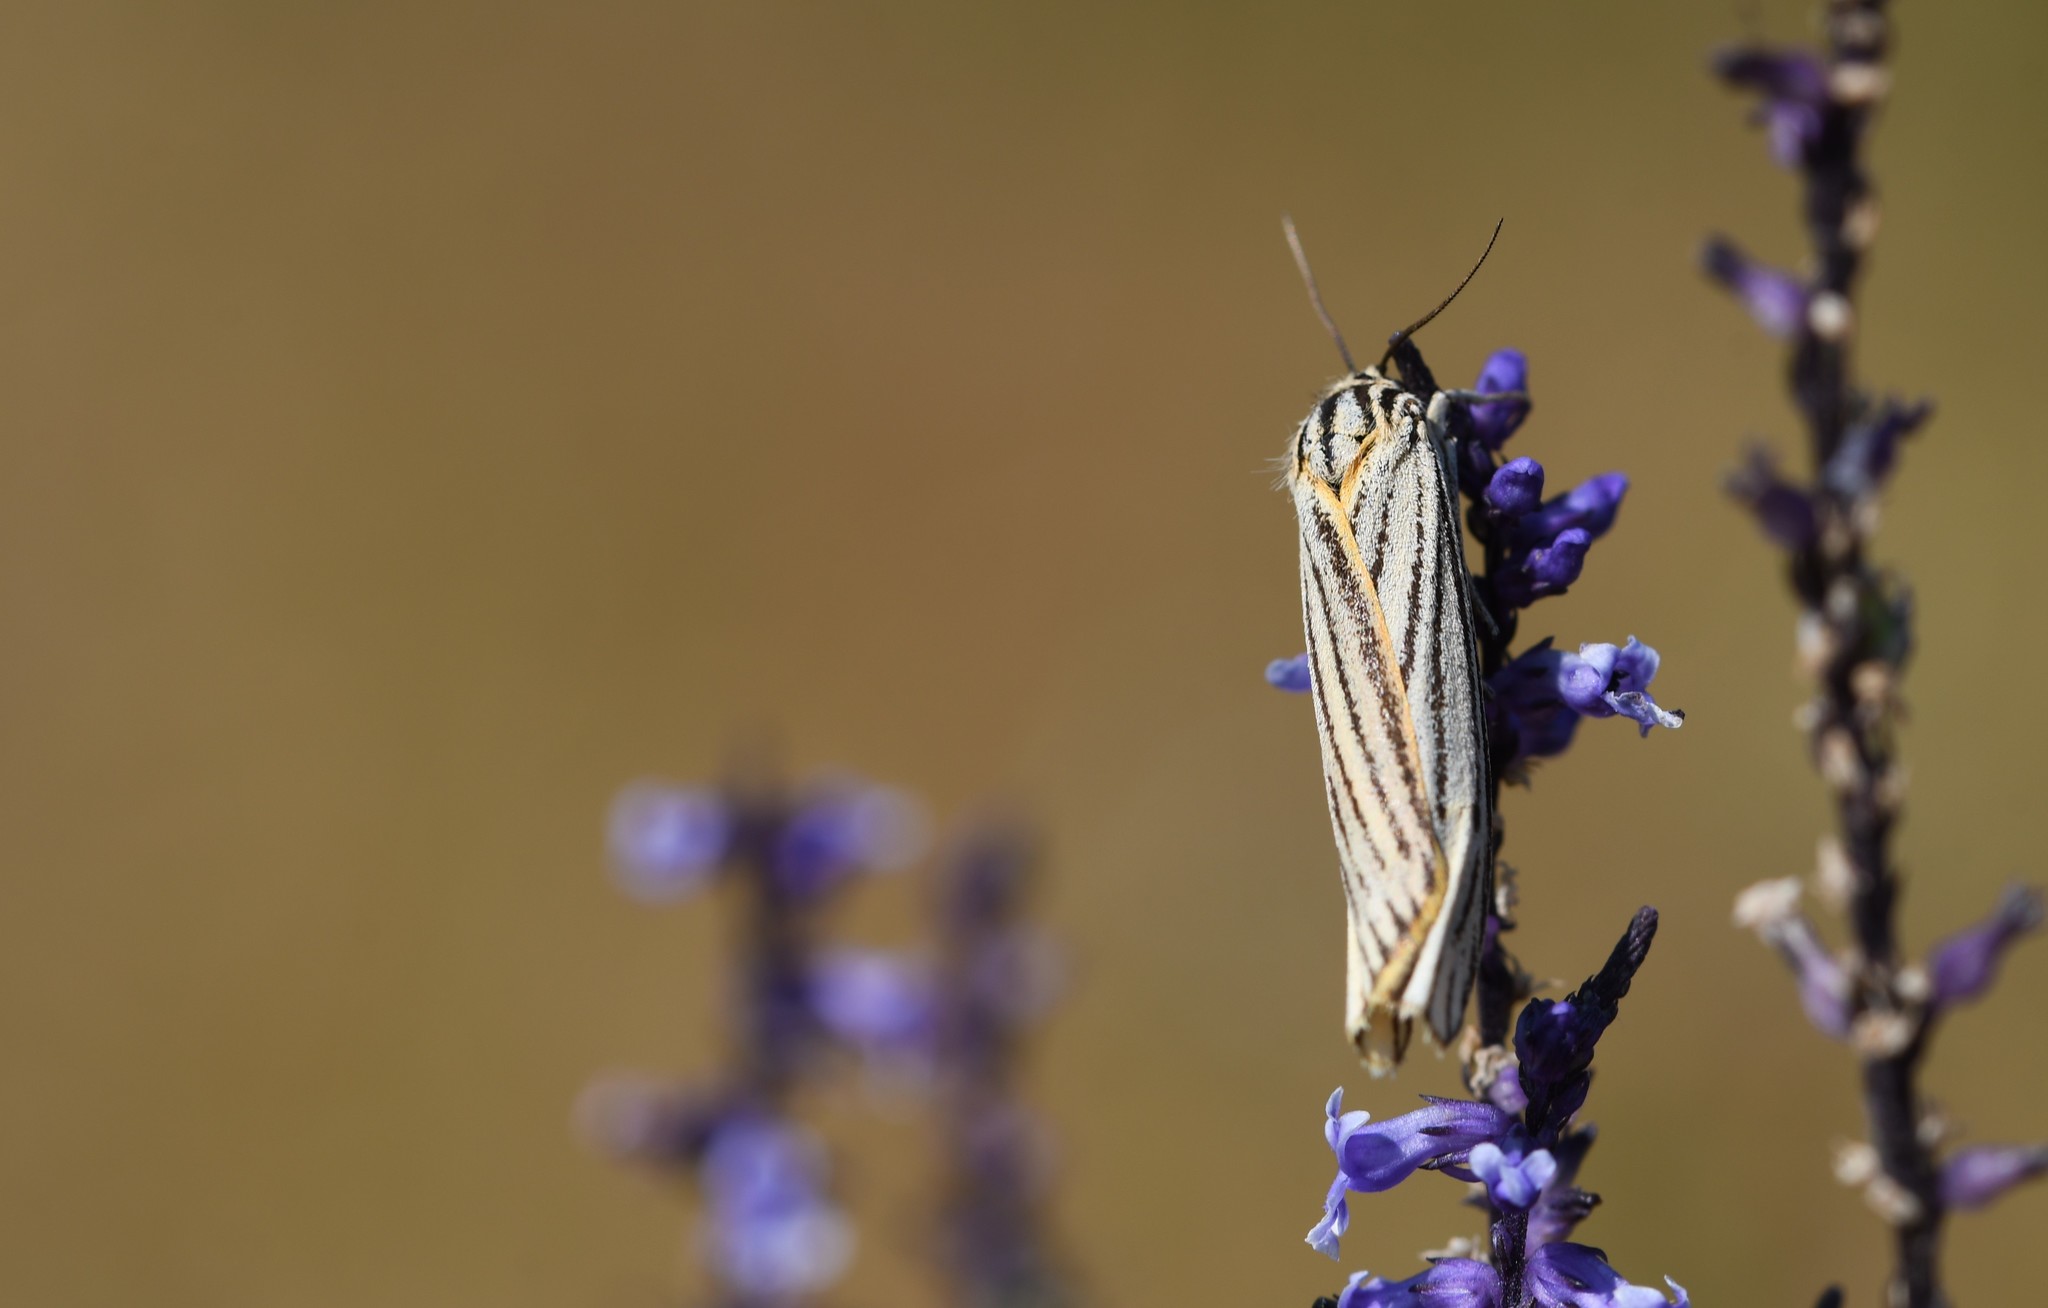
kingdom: Animalia
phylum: Arthropoda
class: Insecta
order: Lepidoptera
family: Erebidae
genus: Coscinia
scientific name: Coscinia Spiris striata
